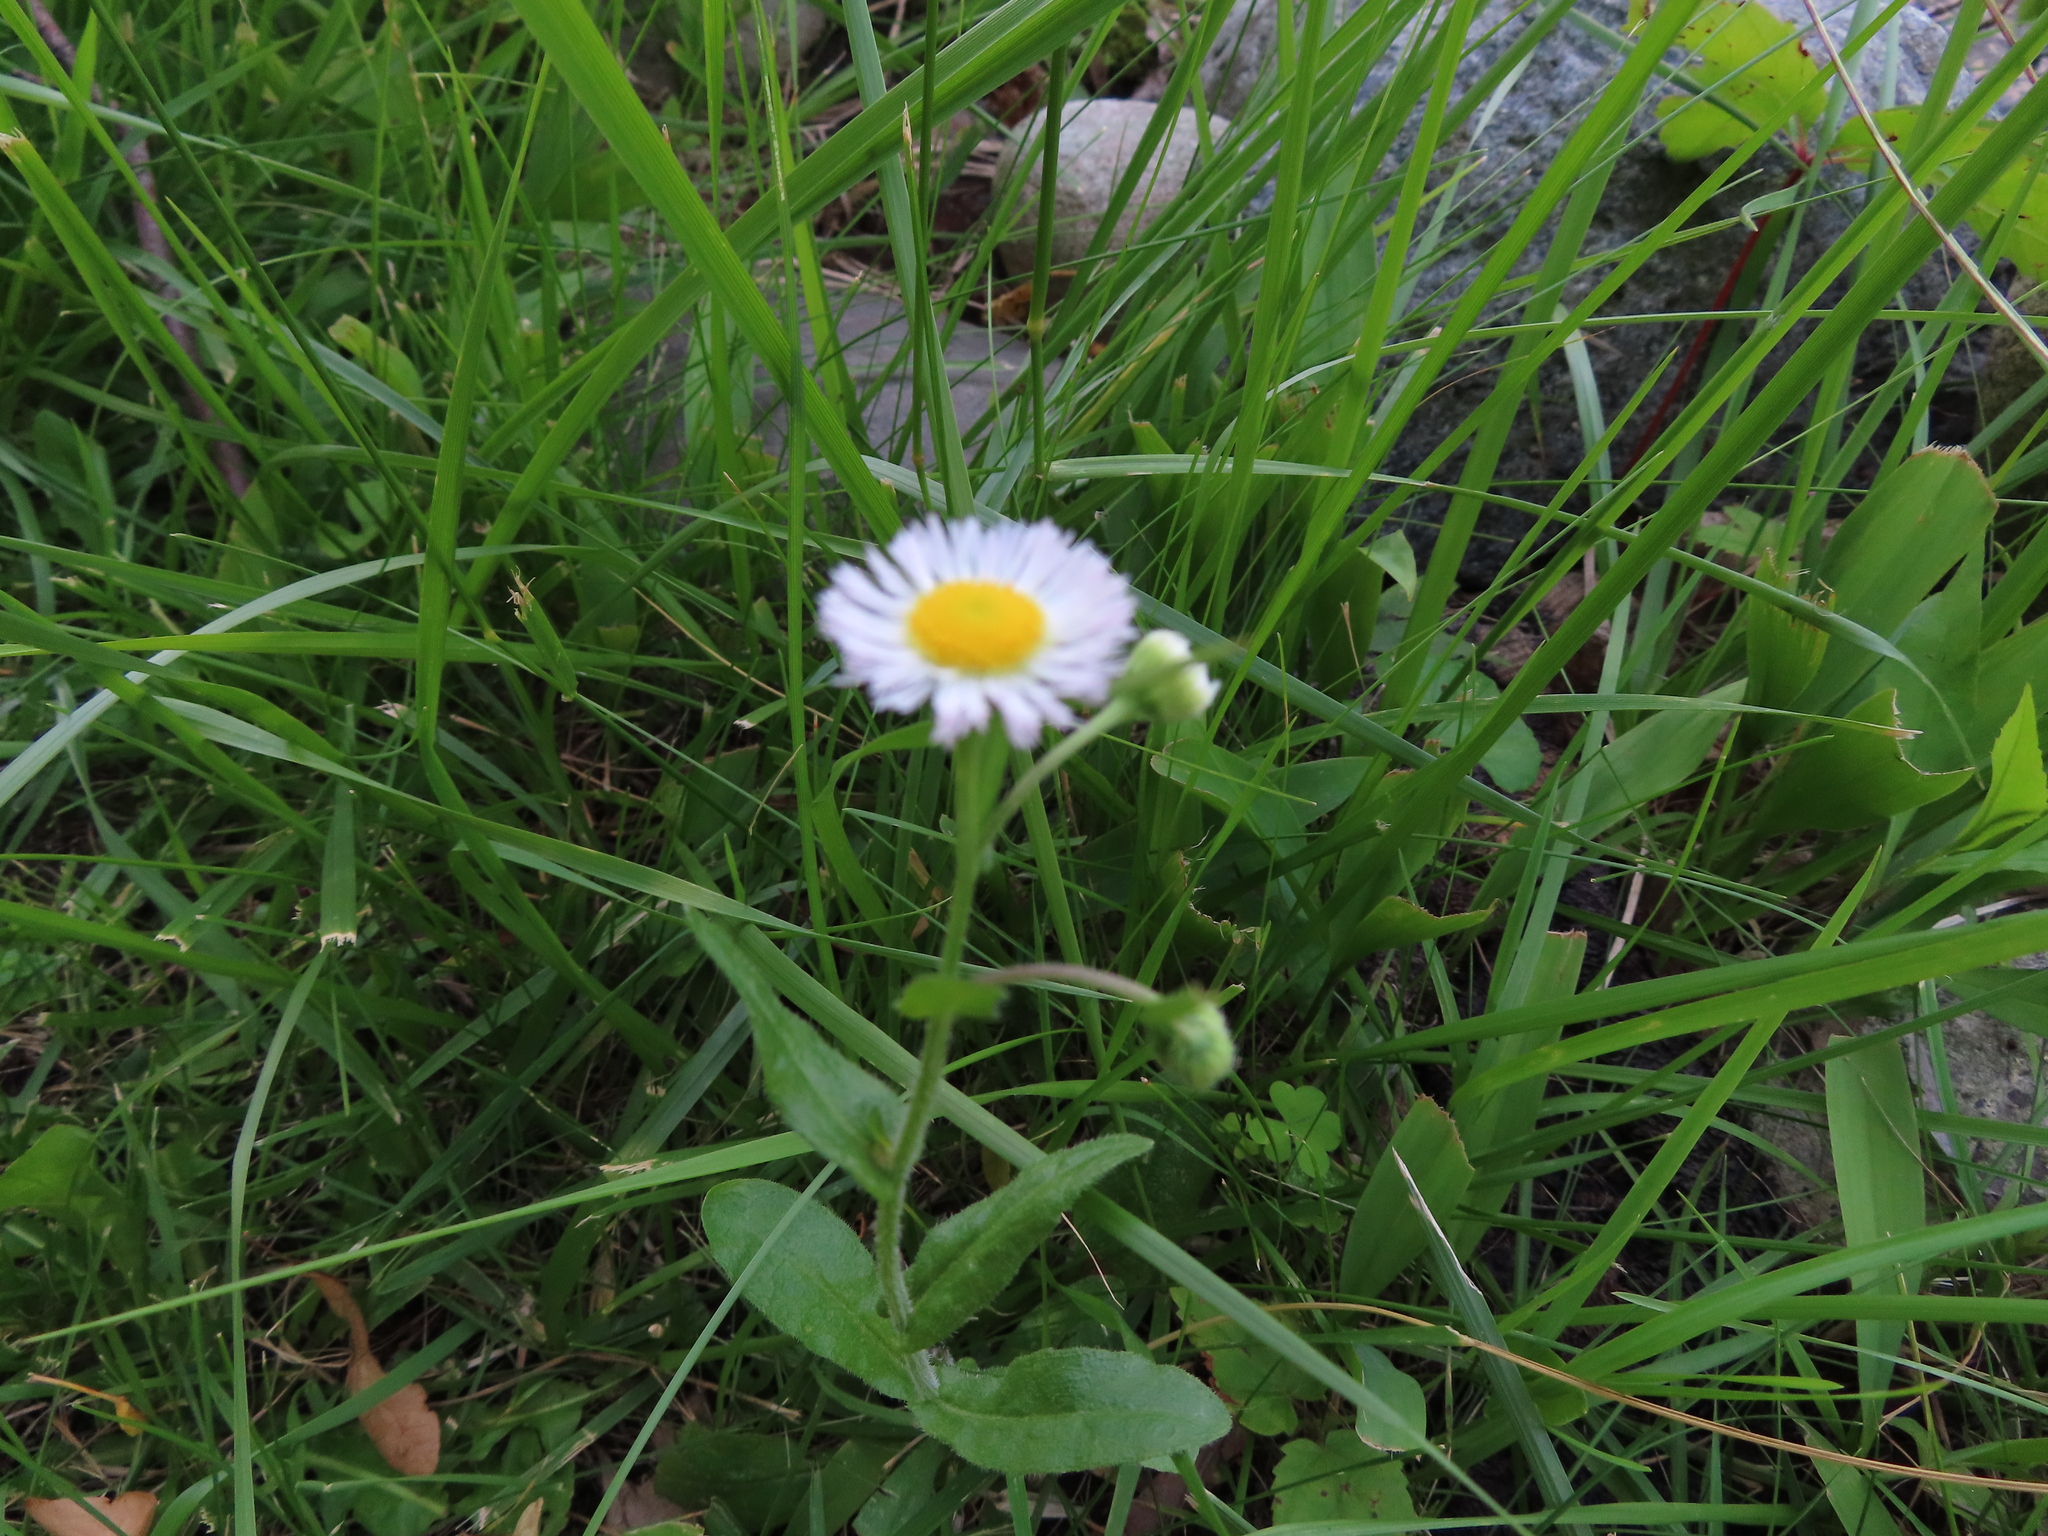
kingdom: Plantae
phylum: Tracheophyta
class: Magnoliopsida
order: Asterales
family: Asteraceae
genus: Erigeron
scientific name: Erigeron philadelphicus
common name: Robin's-plantain
